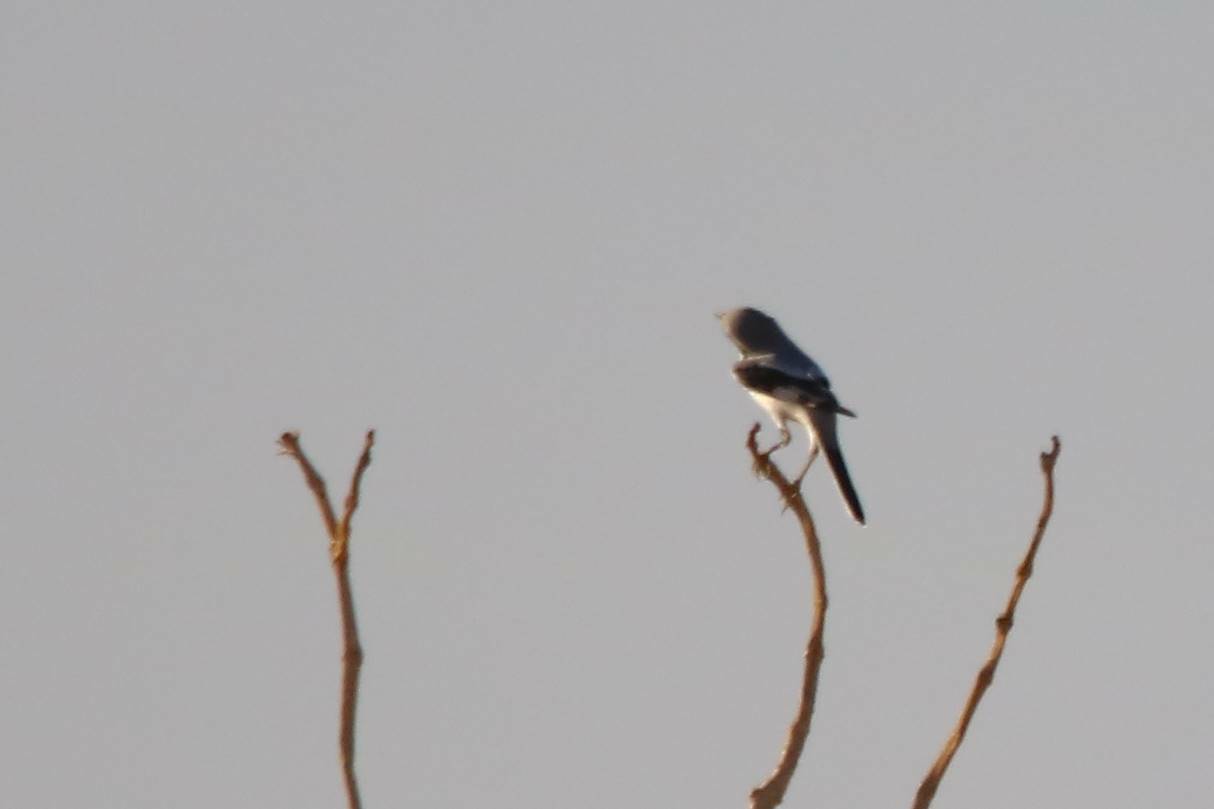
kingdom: Animalia
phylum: Chordata
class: Aves
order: Passeriformes
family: Laniidae
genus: Lanius
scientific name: Lanius excubitor
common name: Great grey shrike
